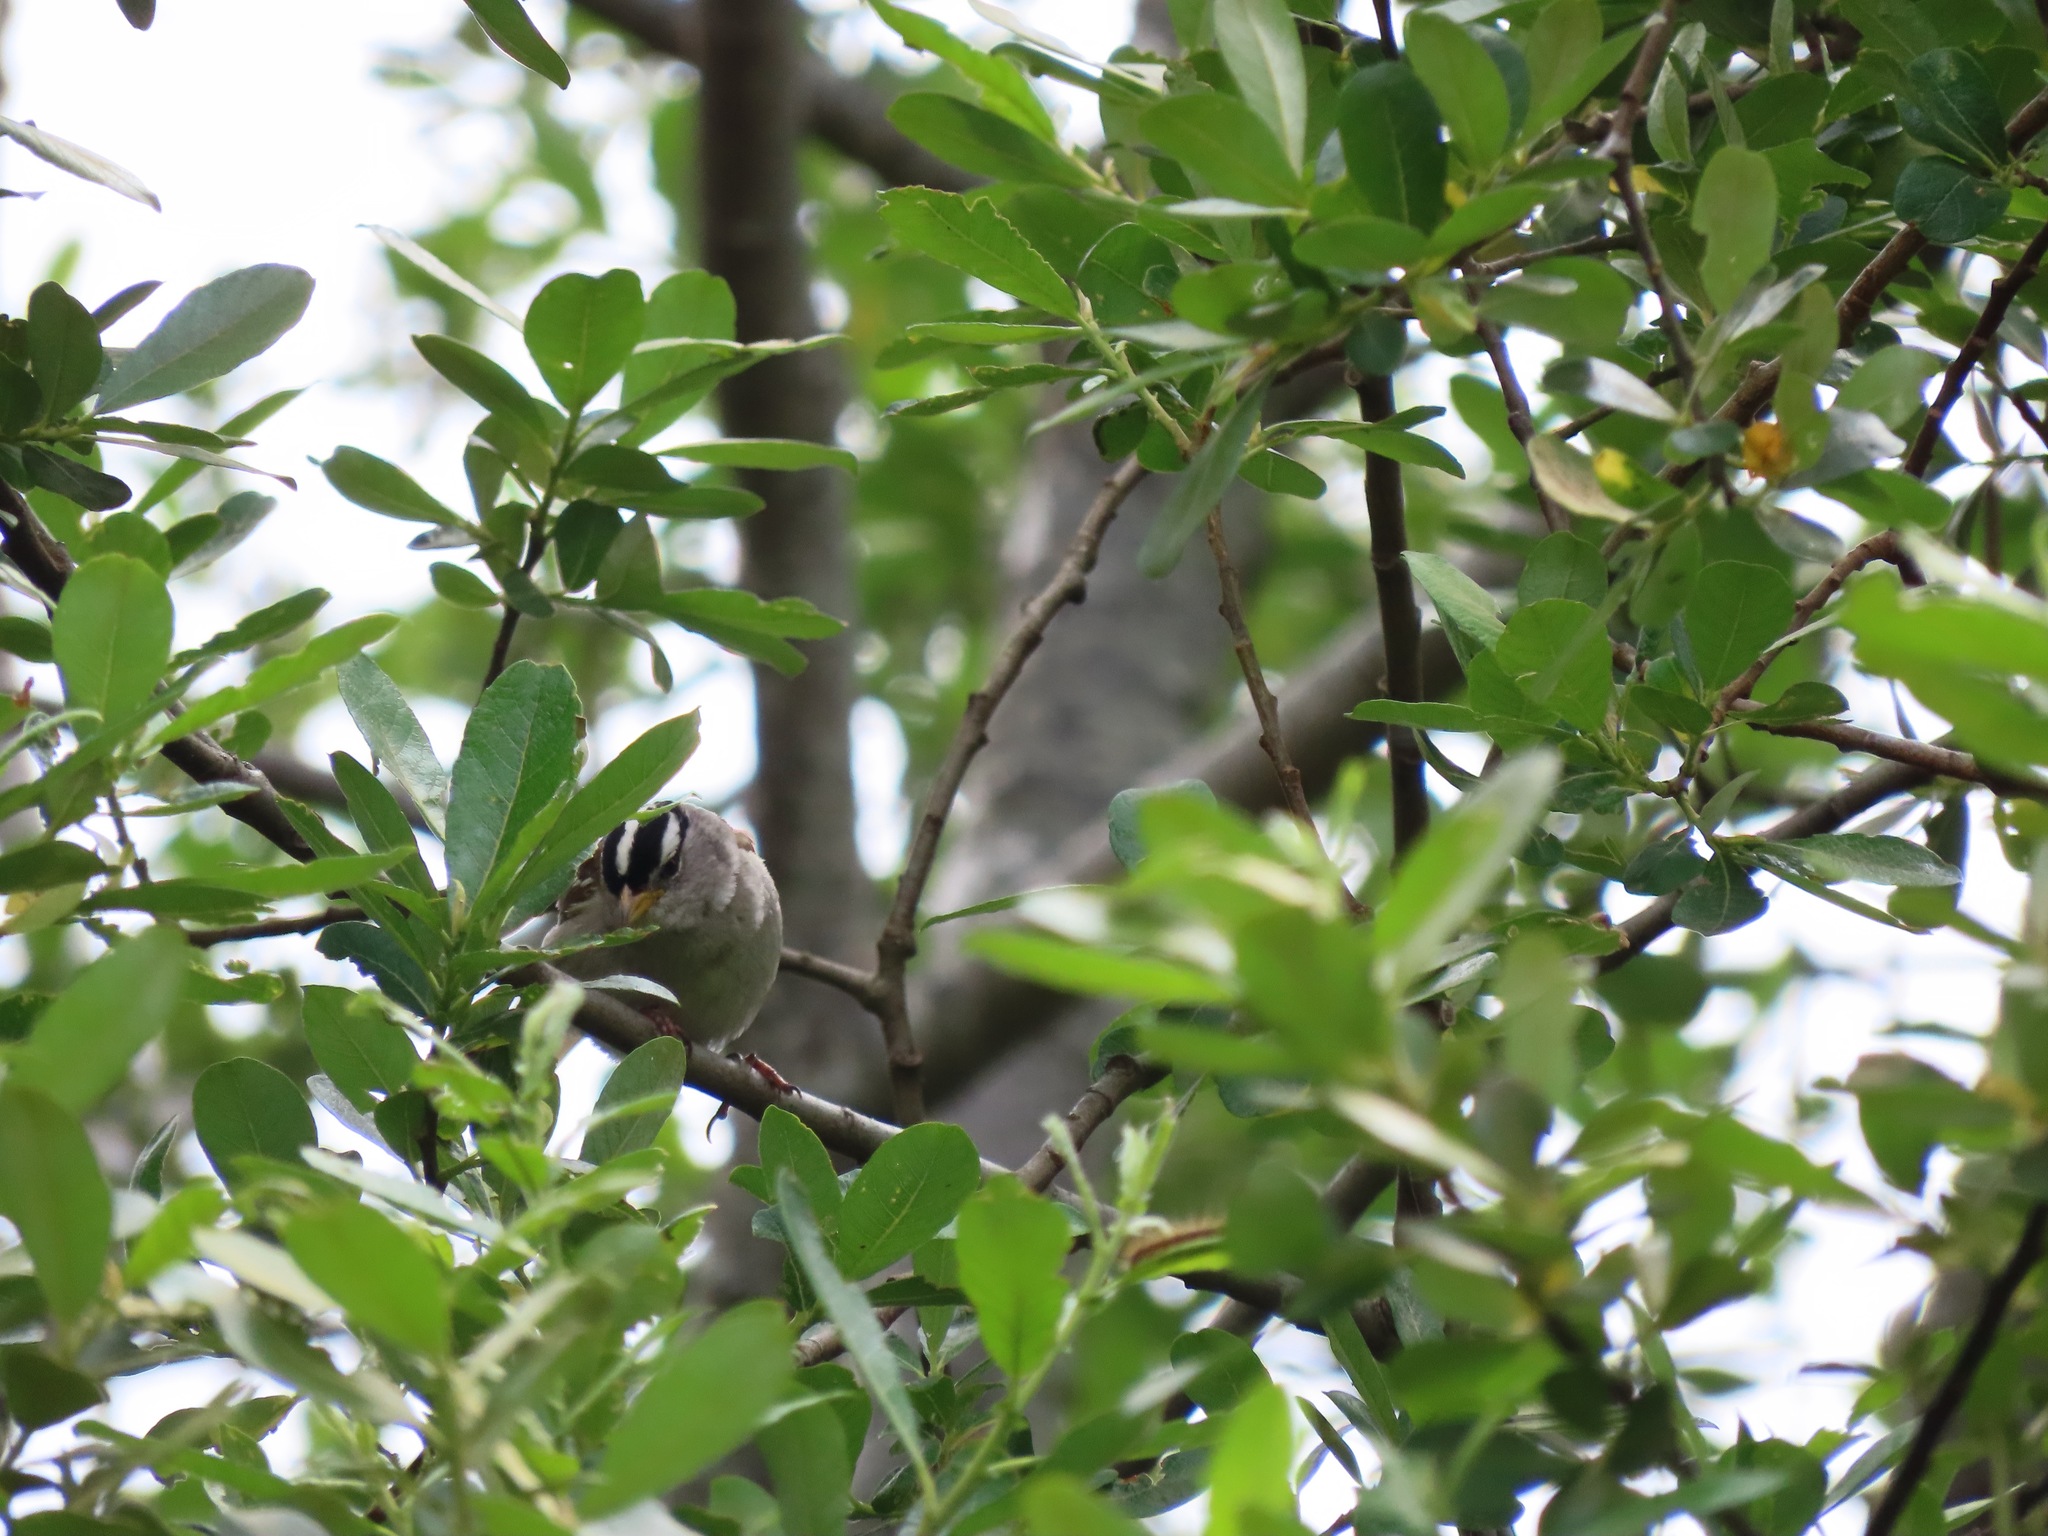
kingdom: Animalia
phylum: Chordata
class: Aves
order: Passeriformes
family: Passerellidae
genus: Zonotrichia
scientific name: Zonotrichia leucophrys
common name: White-crowned sparrow
